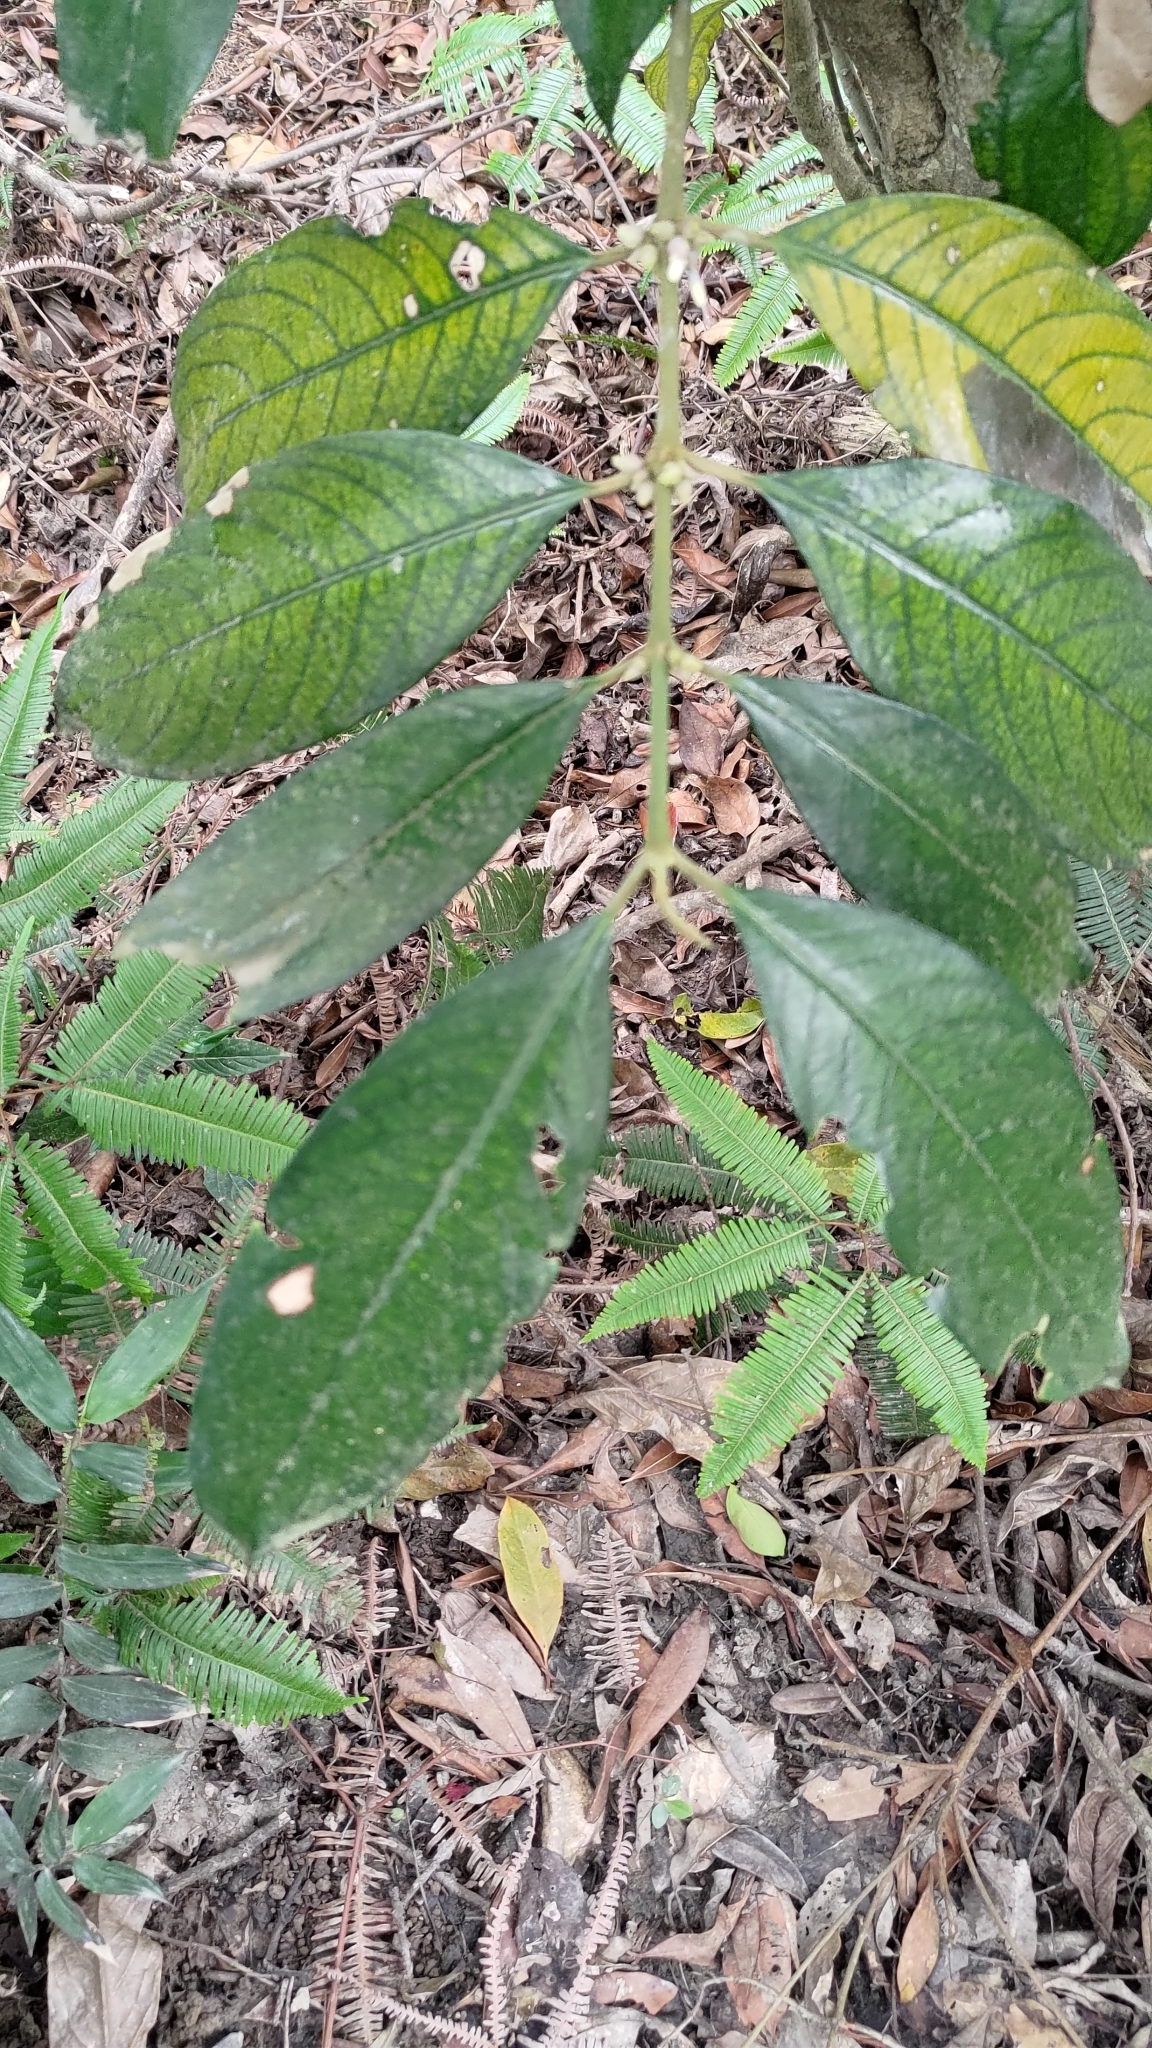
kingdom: Plantae
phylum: Tracheophyta
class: Magnoliopsida
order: Gentianales
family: Rubiaceae
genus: Lasianthus
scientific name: Lasianthus chinensis
